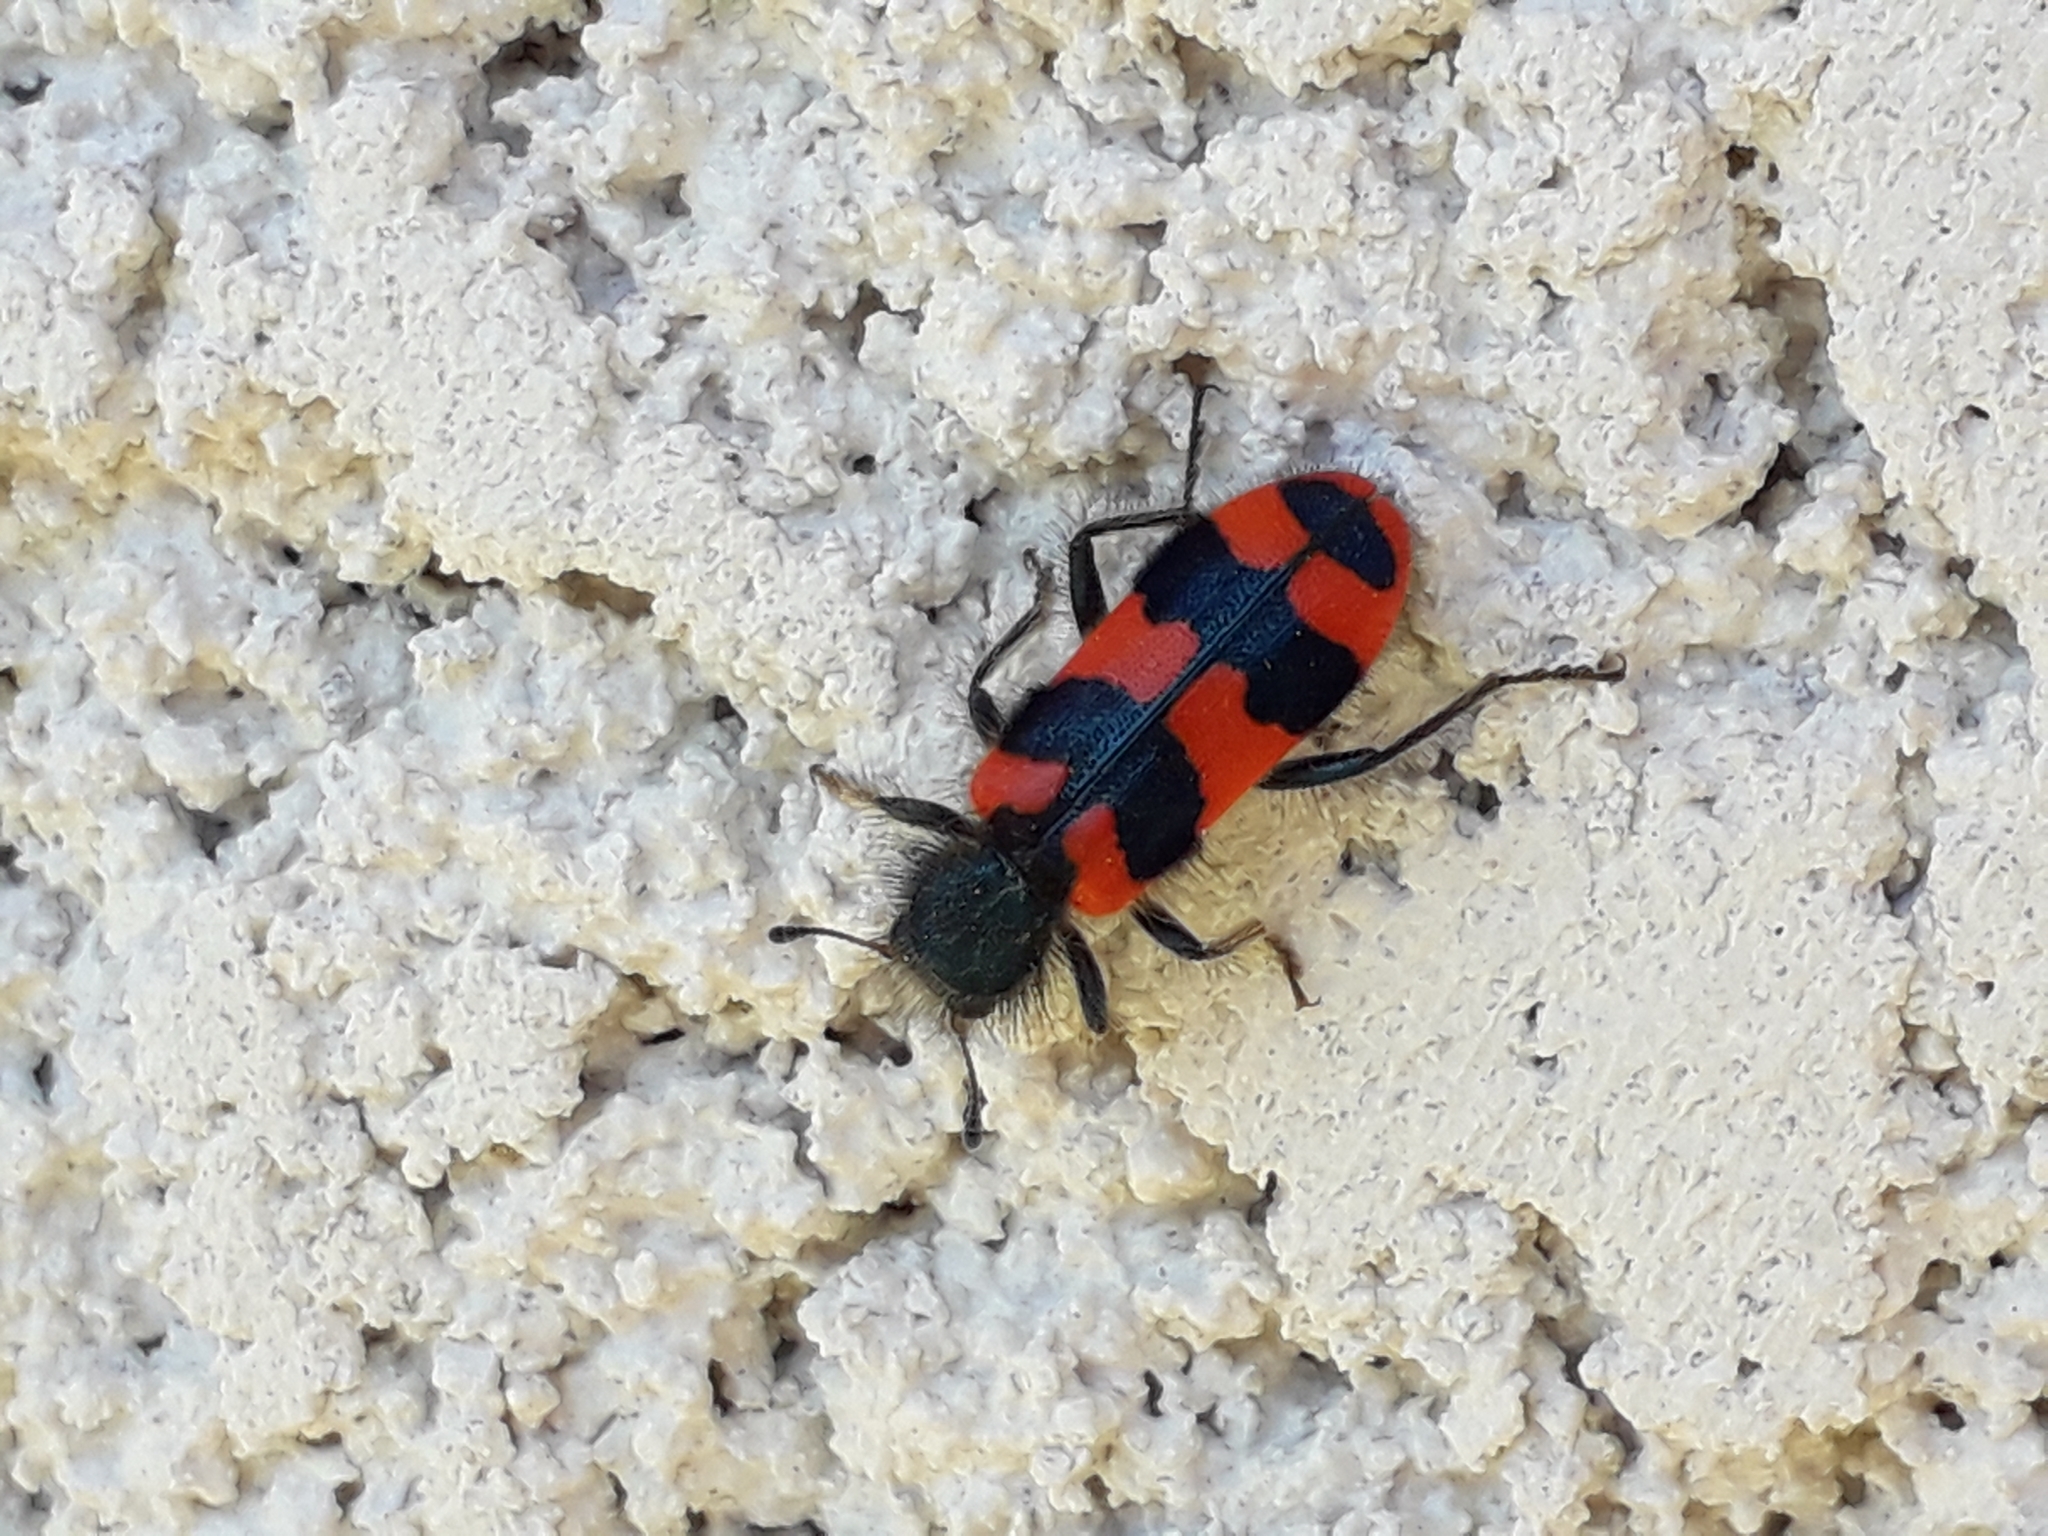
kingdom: Animalia
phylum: Arthropoda
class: Insecta
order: Coleoptera
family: Cleridae
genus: Trichodes
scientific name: Trichodes alvearius
